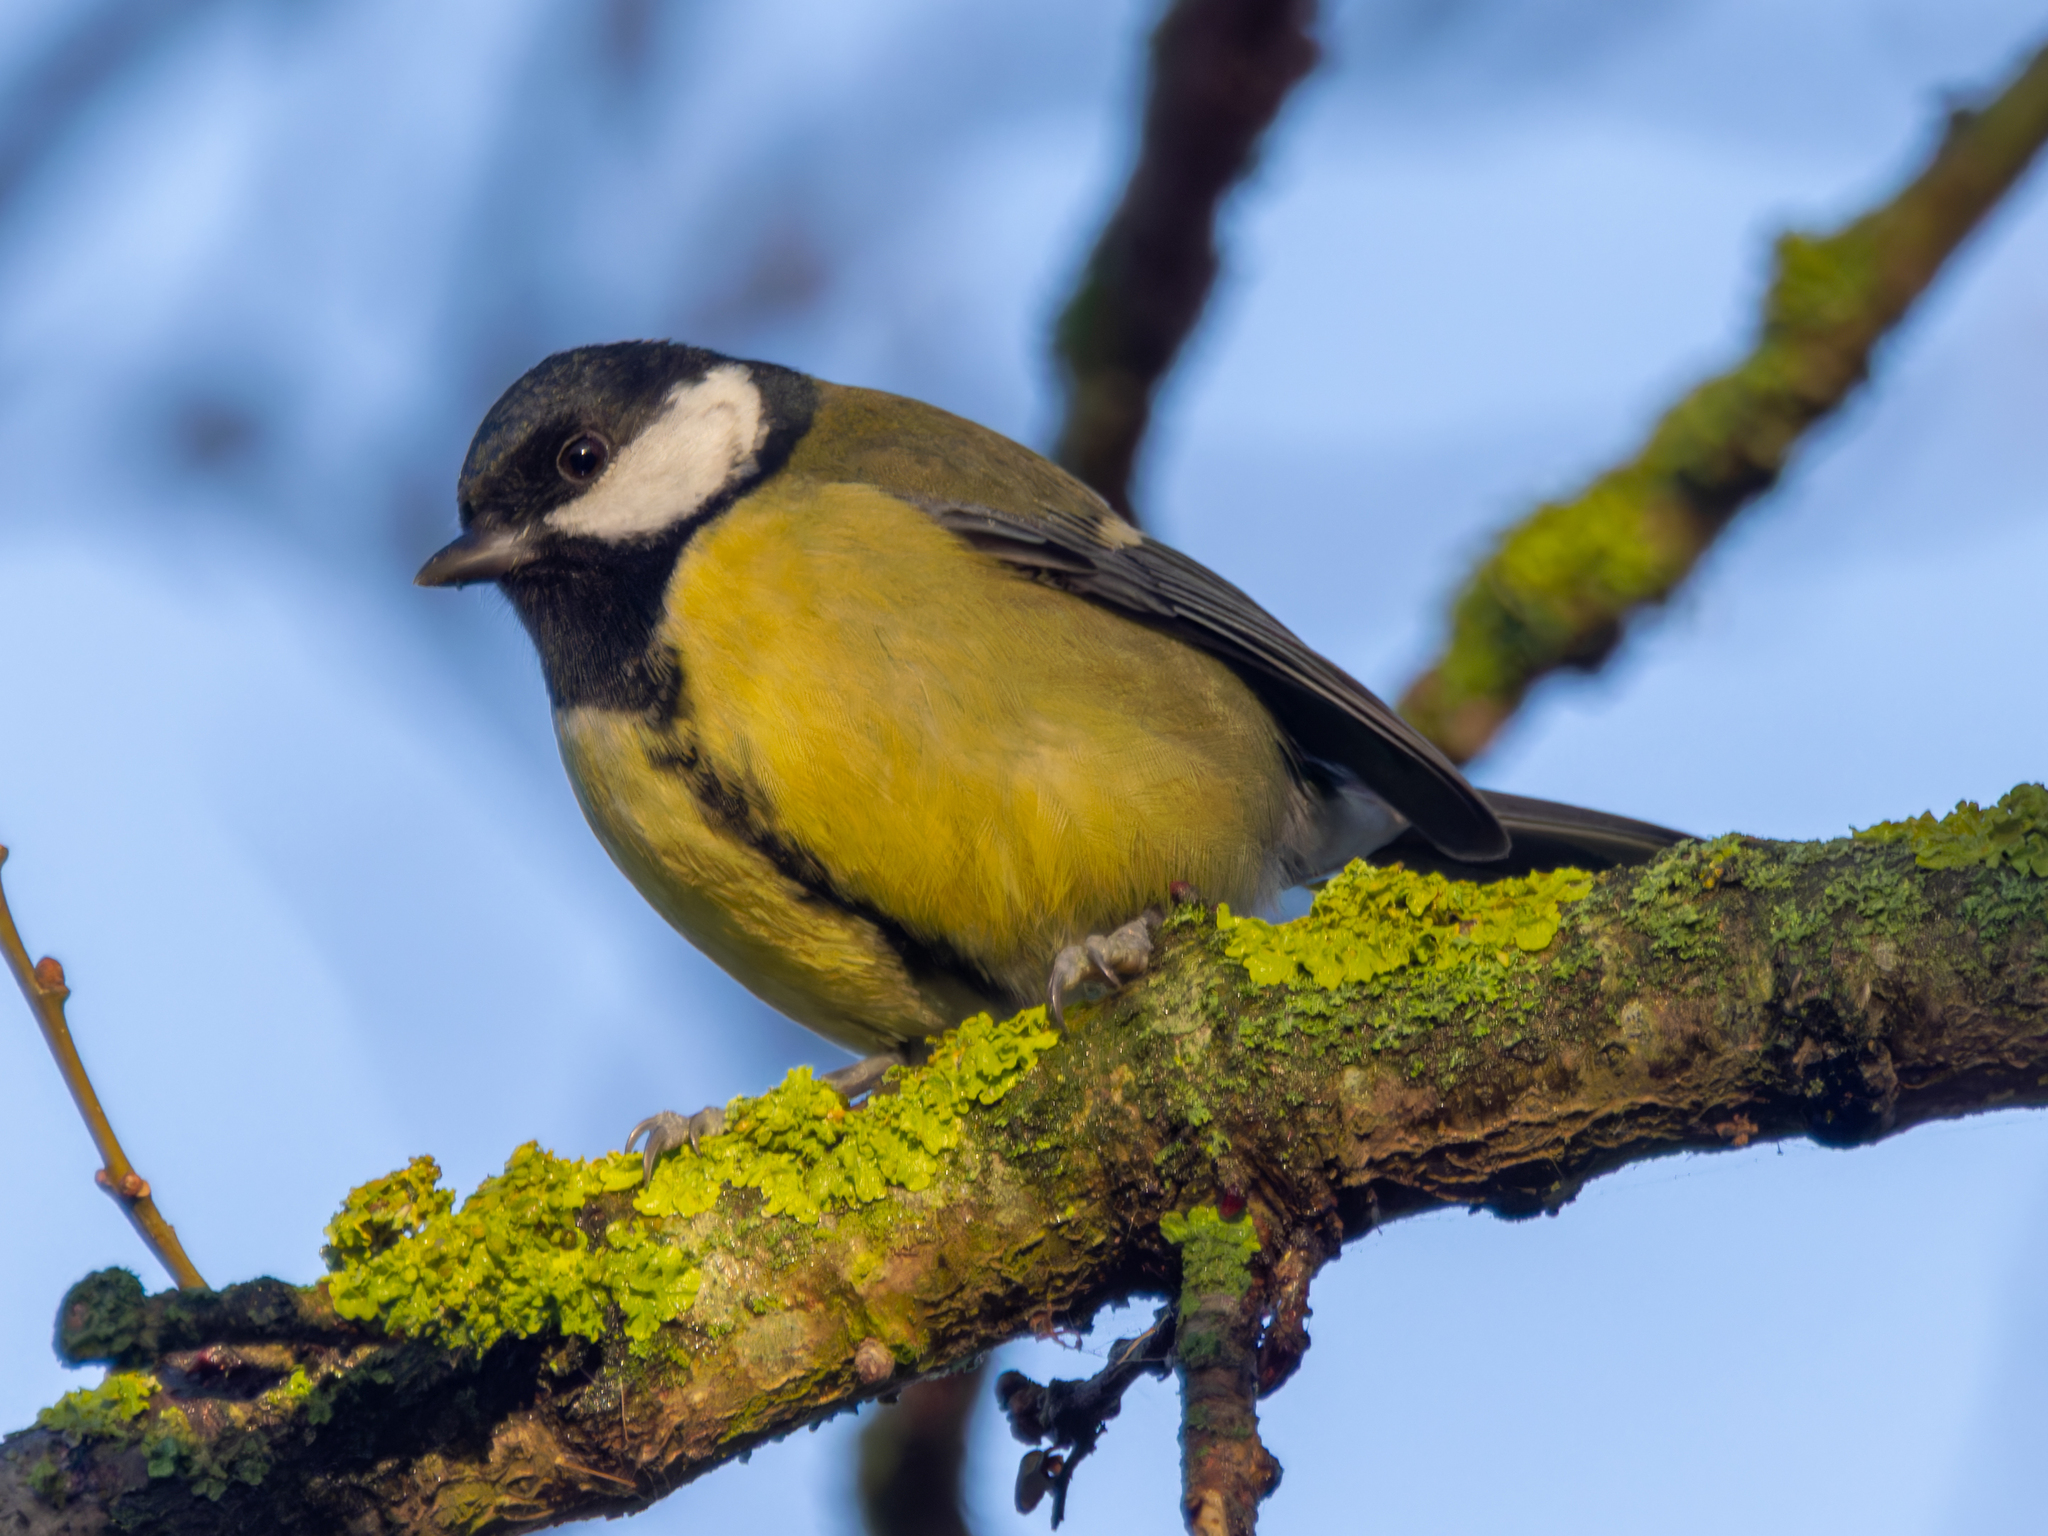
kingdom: Animalia
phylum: Chordata
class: Aves
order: Passeriformes
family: Paridae
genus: Parus
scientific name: Parus major
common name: Great tit
